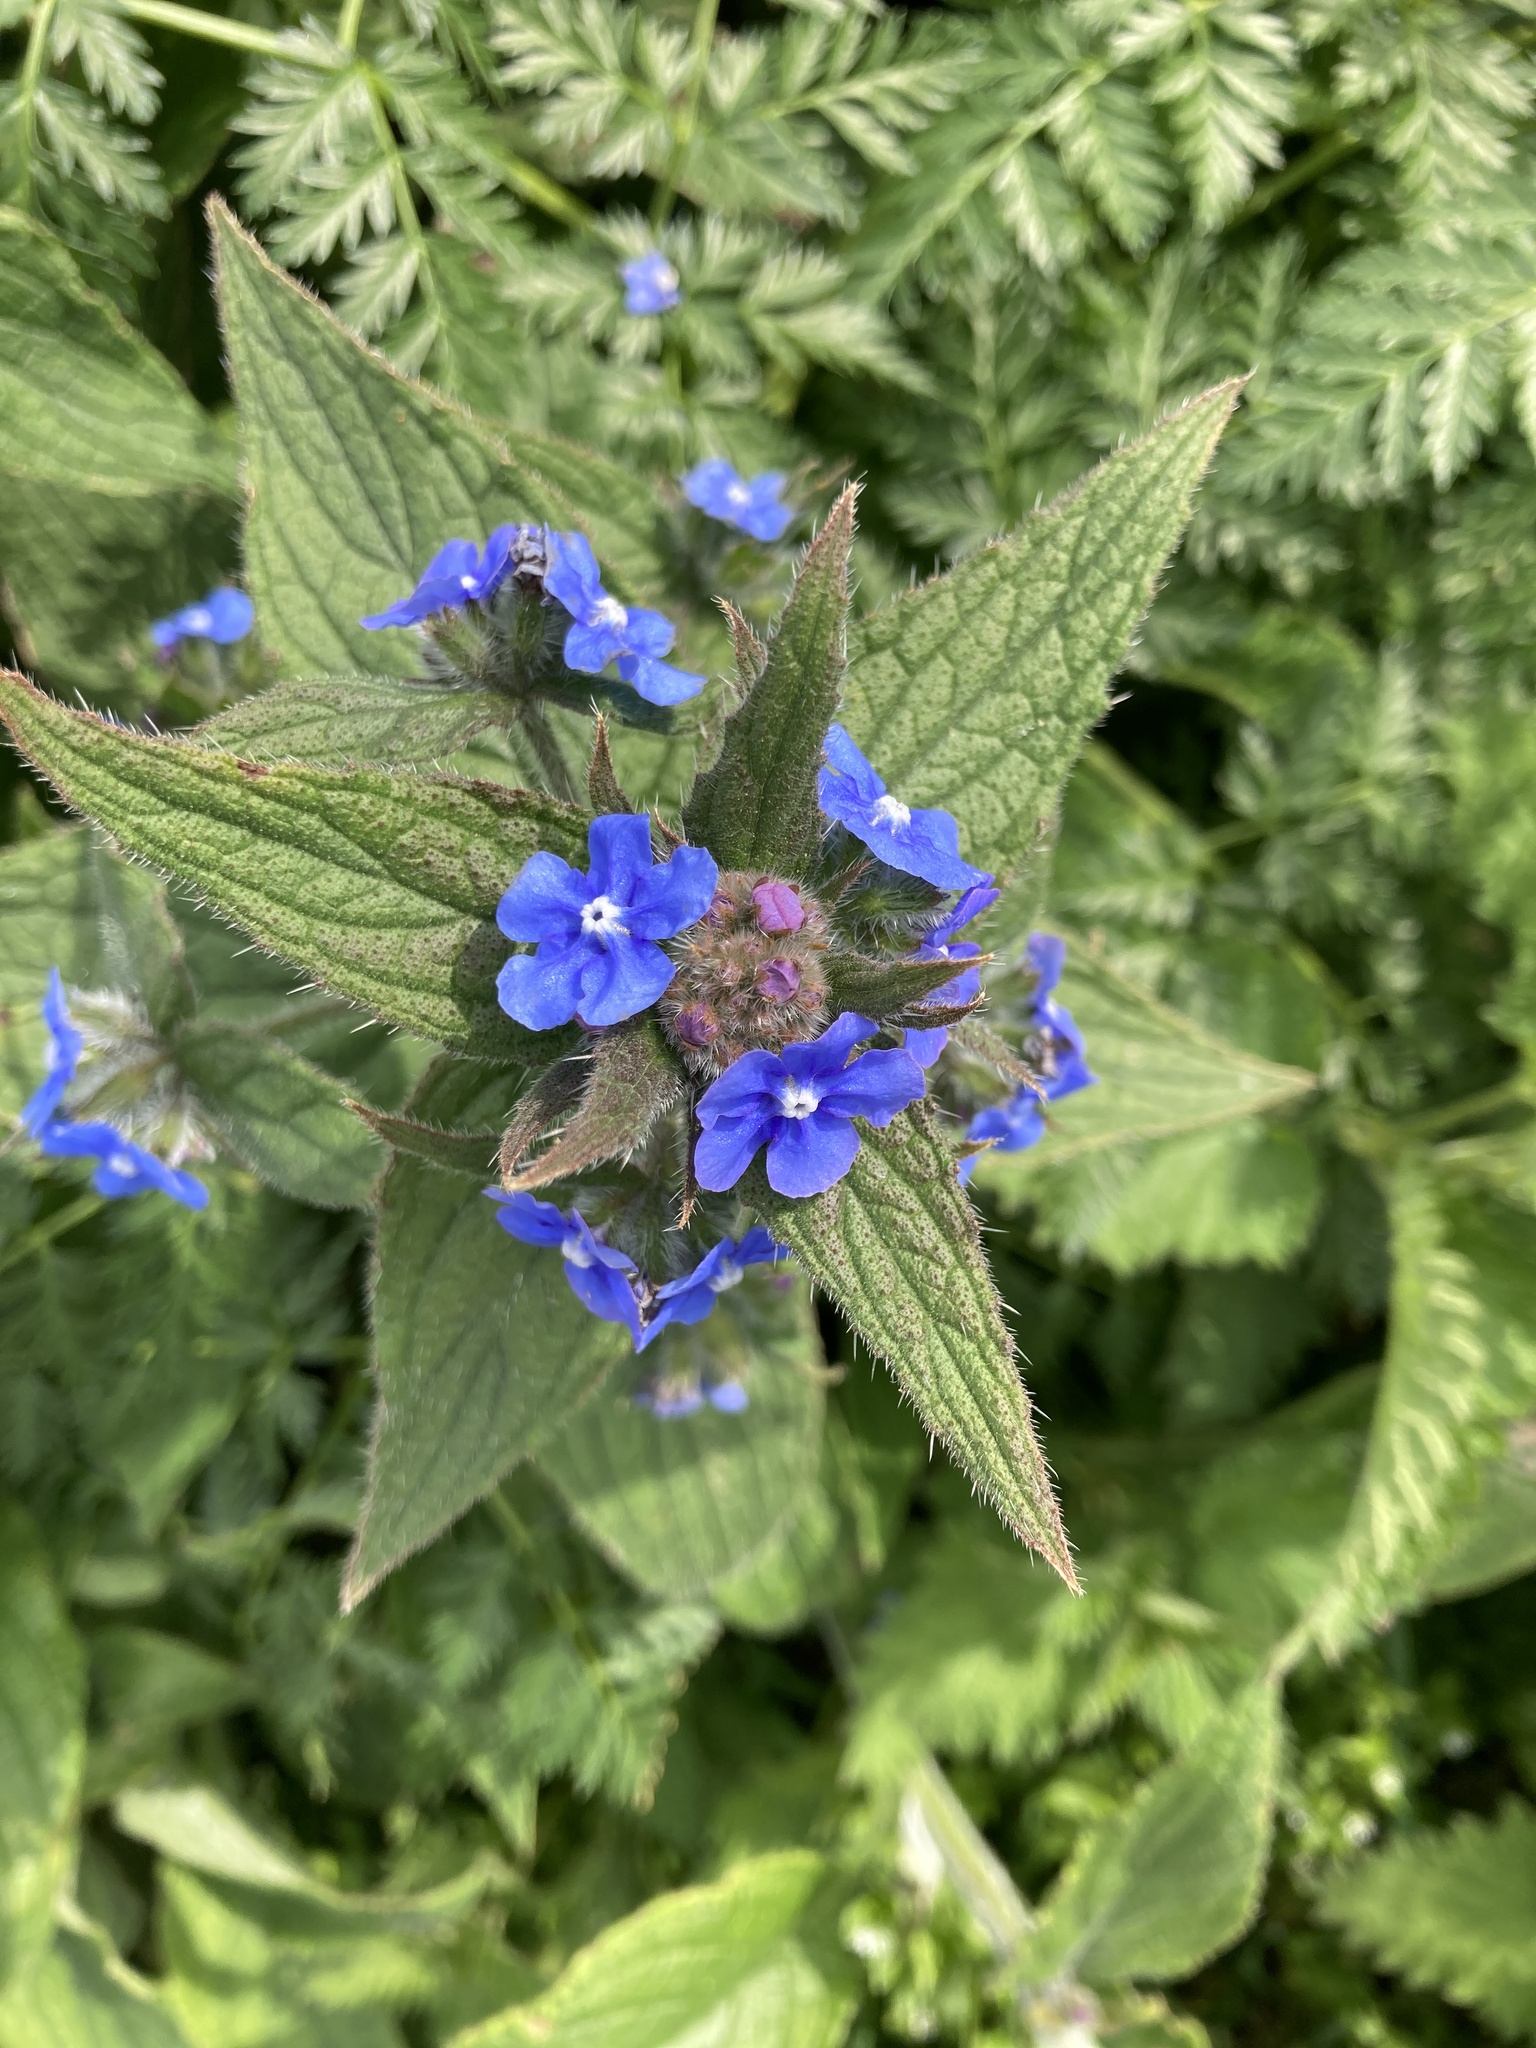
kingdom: Plantae
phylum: Tracheophyta
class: Magnoliopsida
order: Boraginales
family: Boraginaceae
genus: Pentaglottis
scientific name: Pentaglottis sempervirens
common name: Green alkanet
